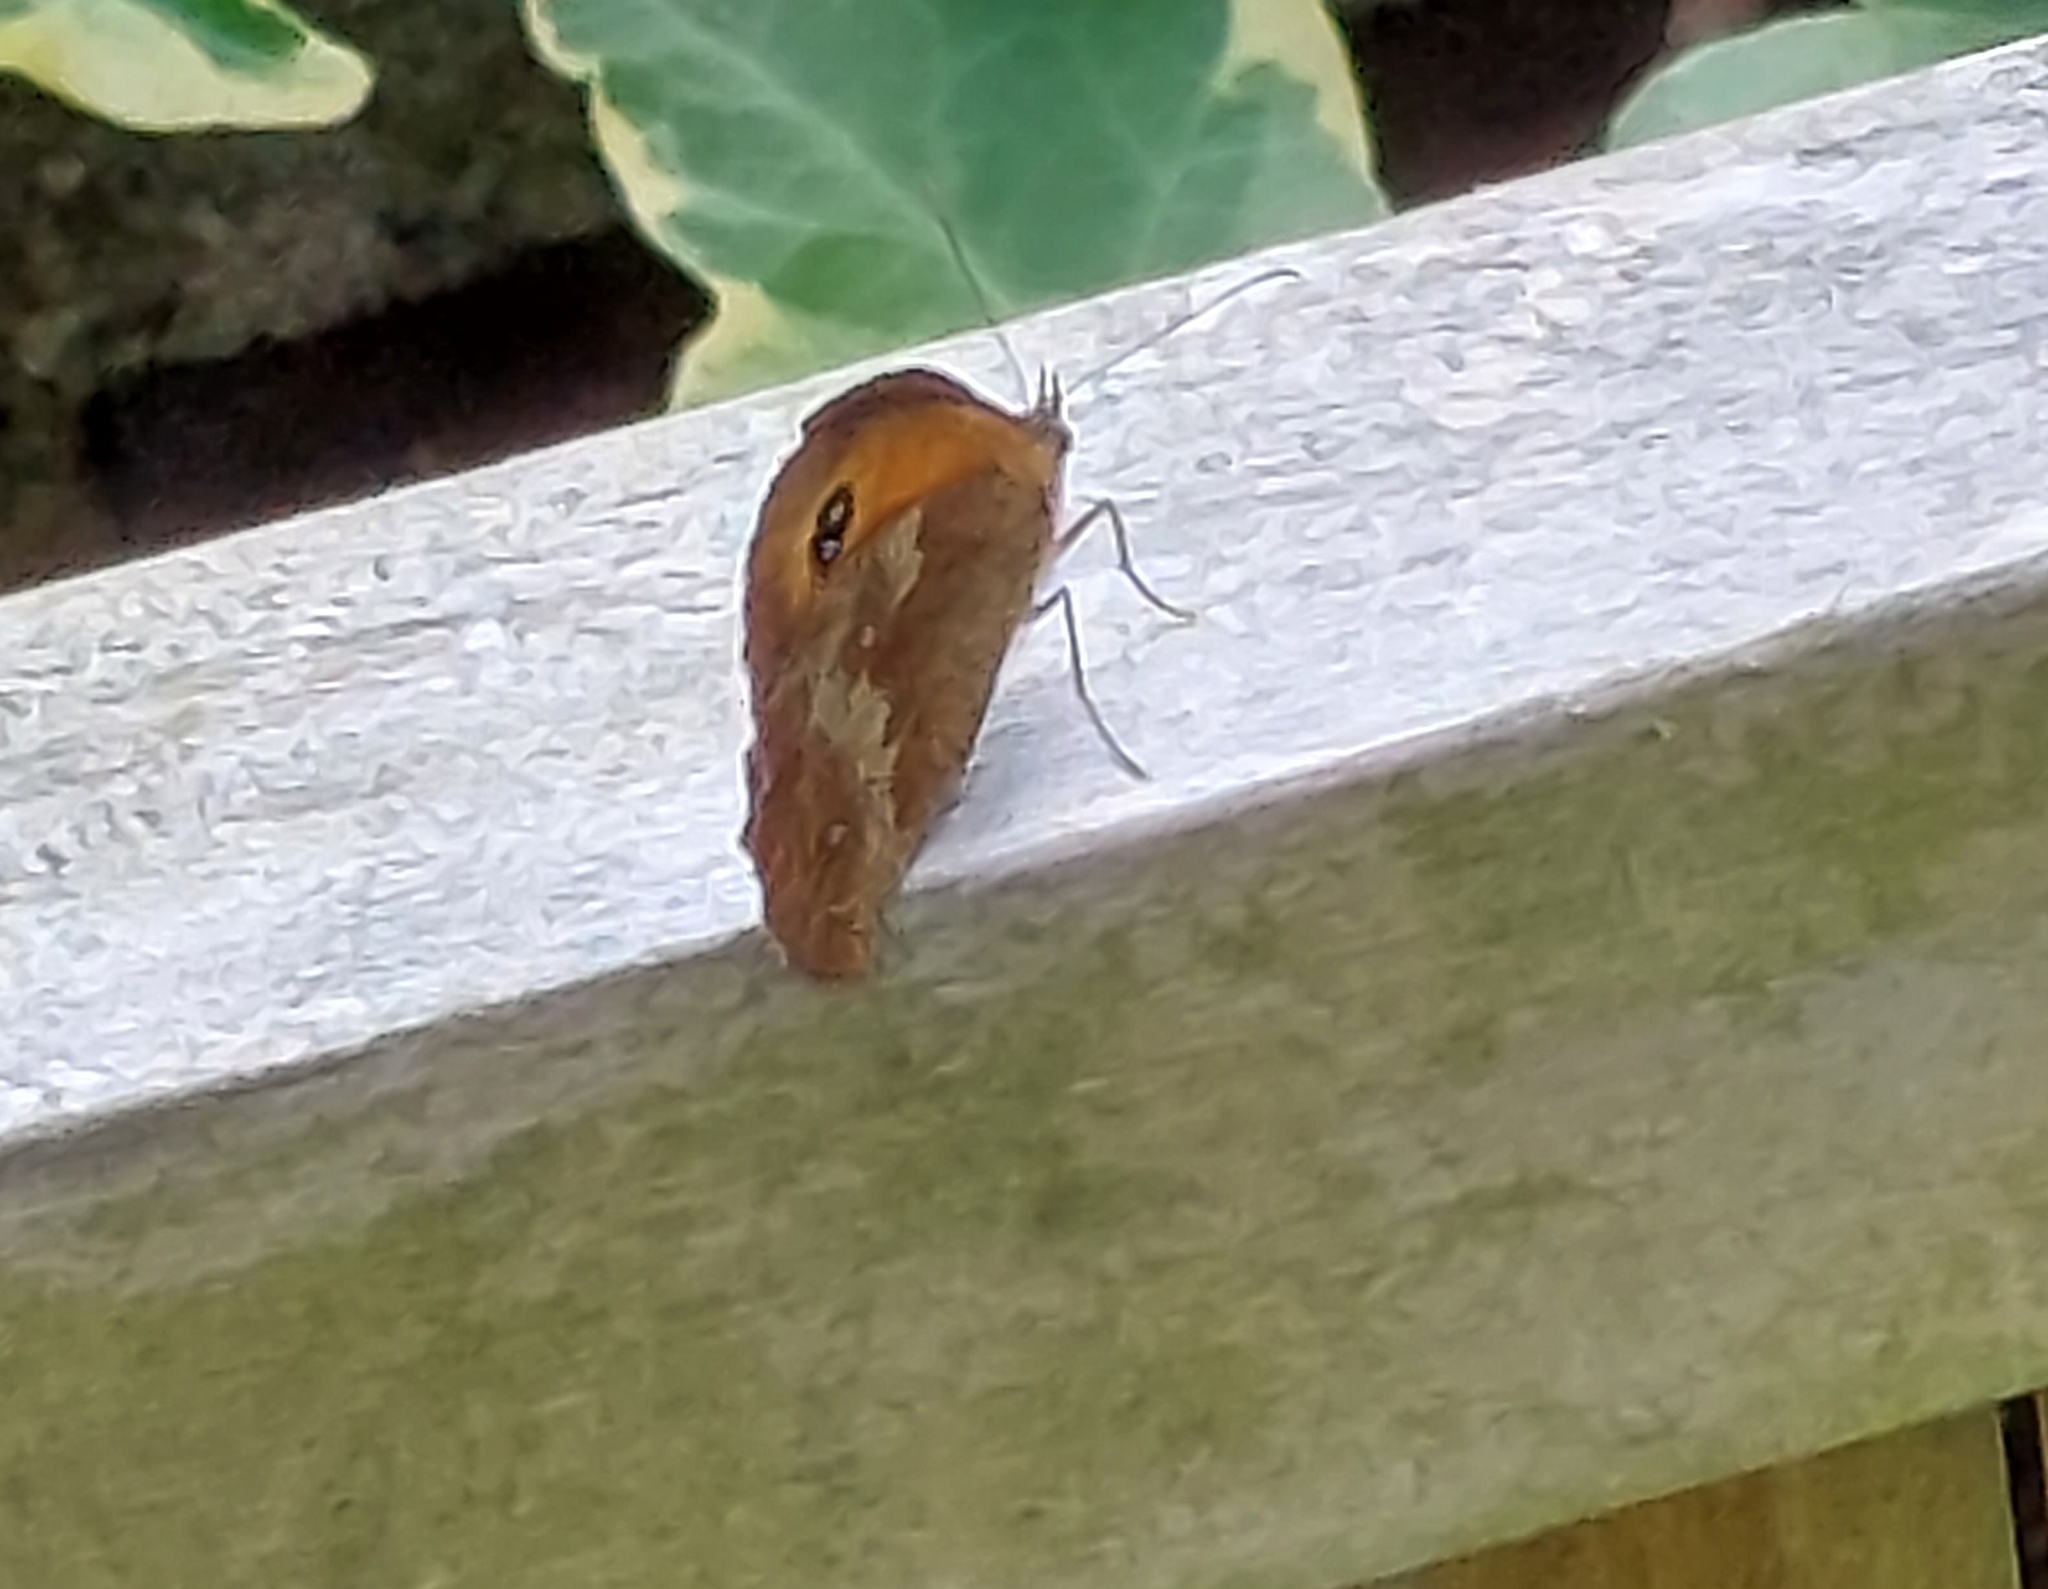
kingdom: Animalia
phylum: Arthropoda
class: Insecta
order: Lepidoptera
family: Nymphalidae
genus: Pyronia
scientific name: Pyronia tithonus
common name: Gatekeeper
